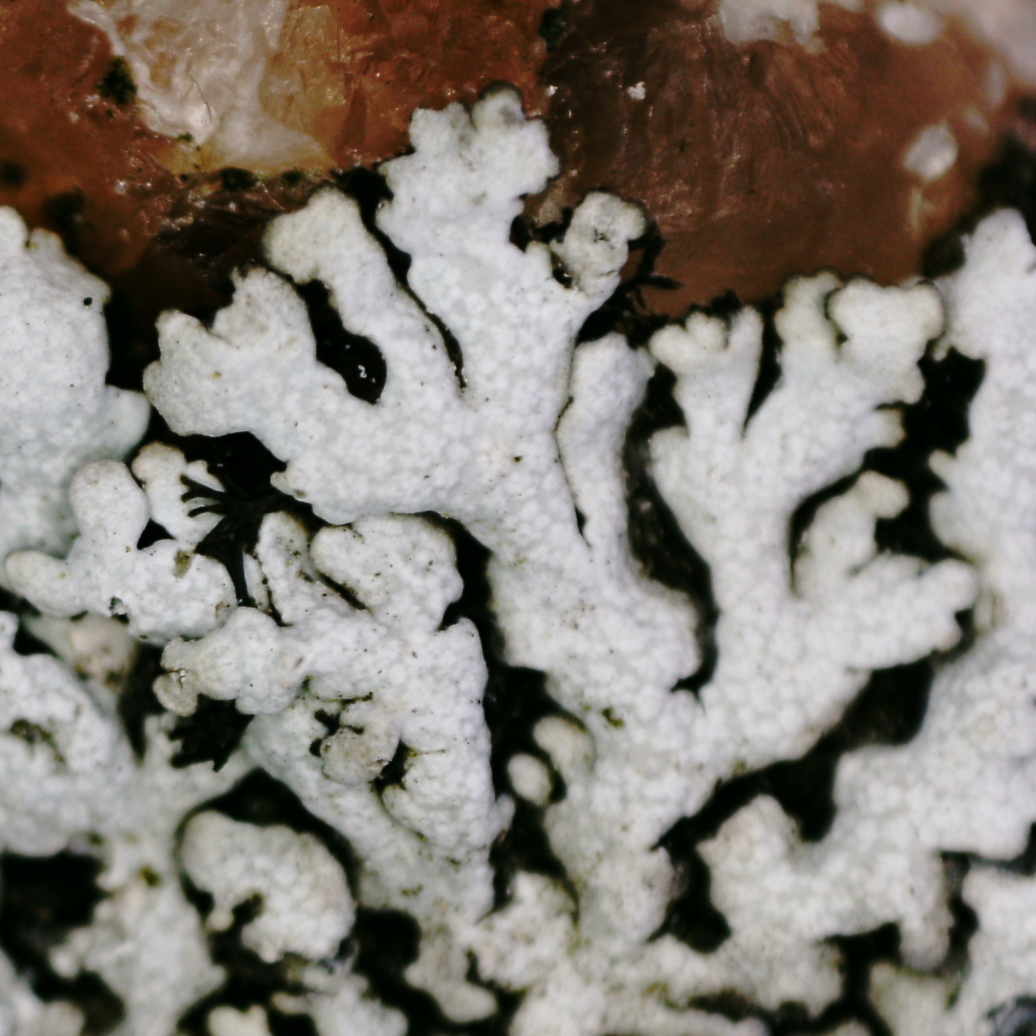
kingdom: Fungi
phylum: Ascomycota
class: Lecanoromycetes
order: Caliciales
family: Physciaceae
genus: Physcia
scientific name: Physcia caesia
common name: Blue-gray rosette lichen
